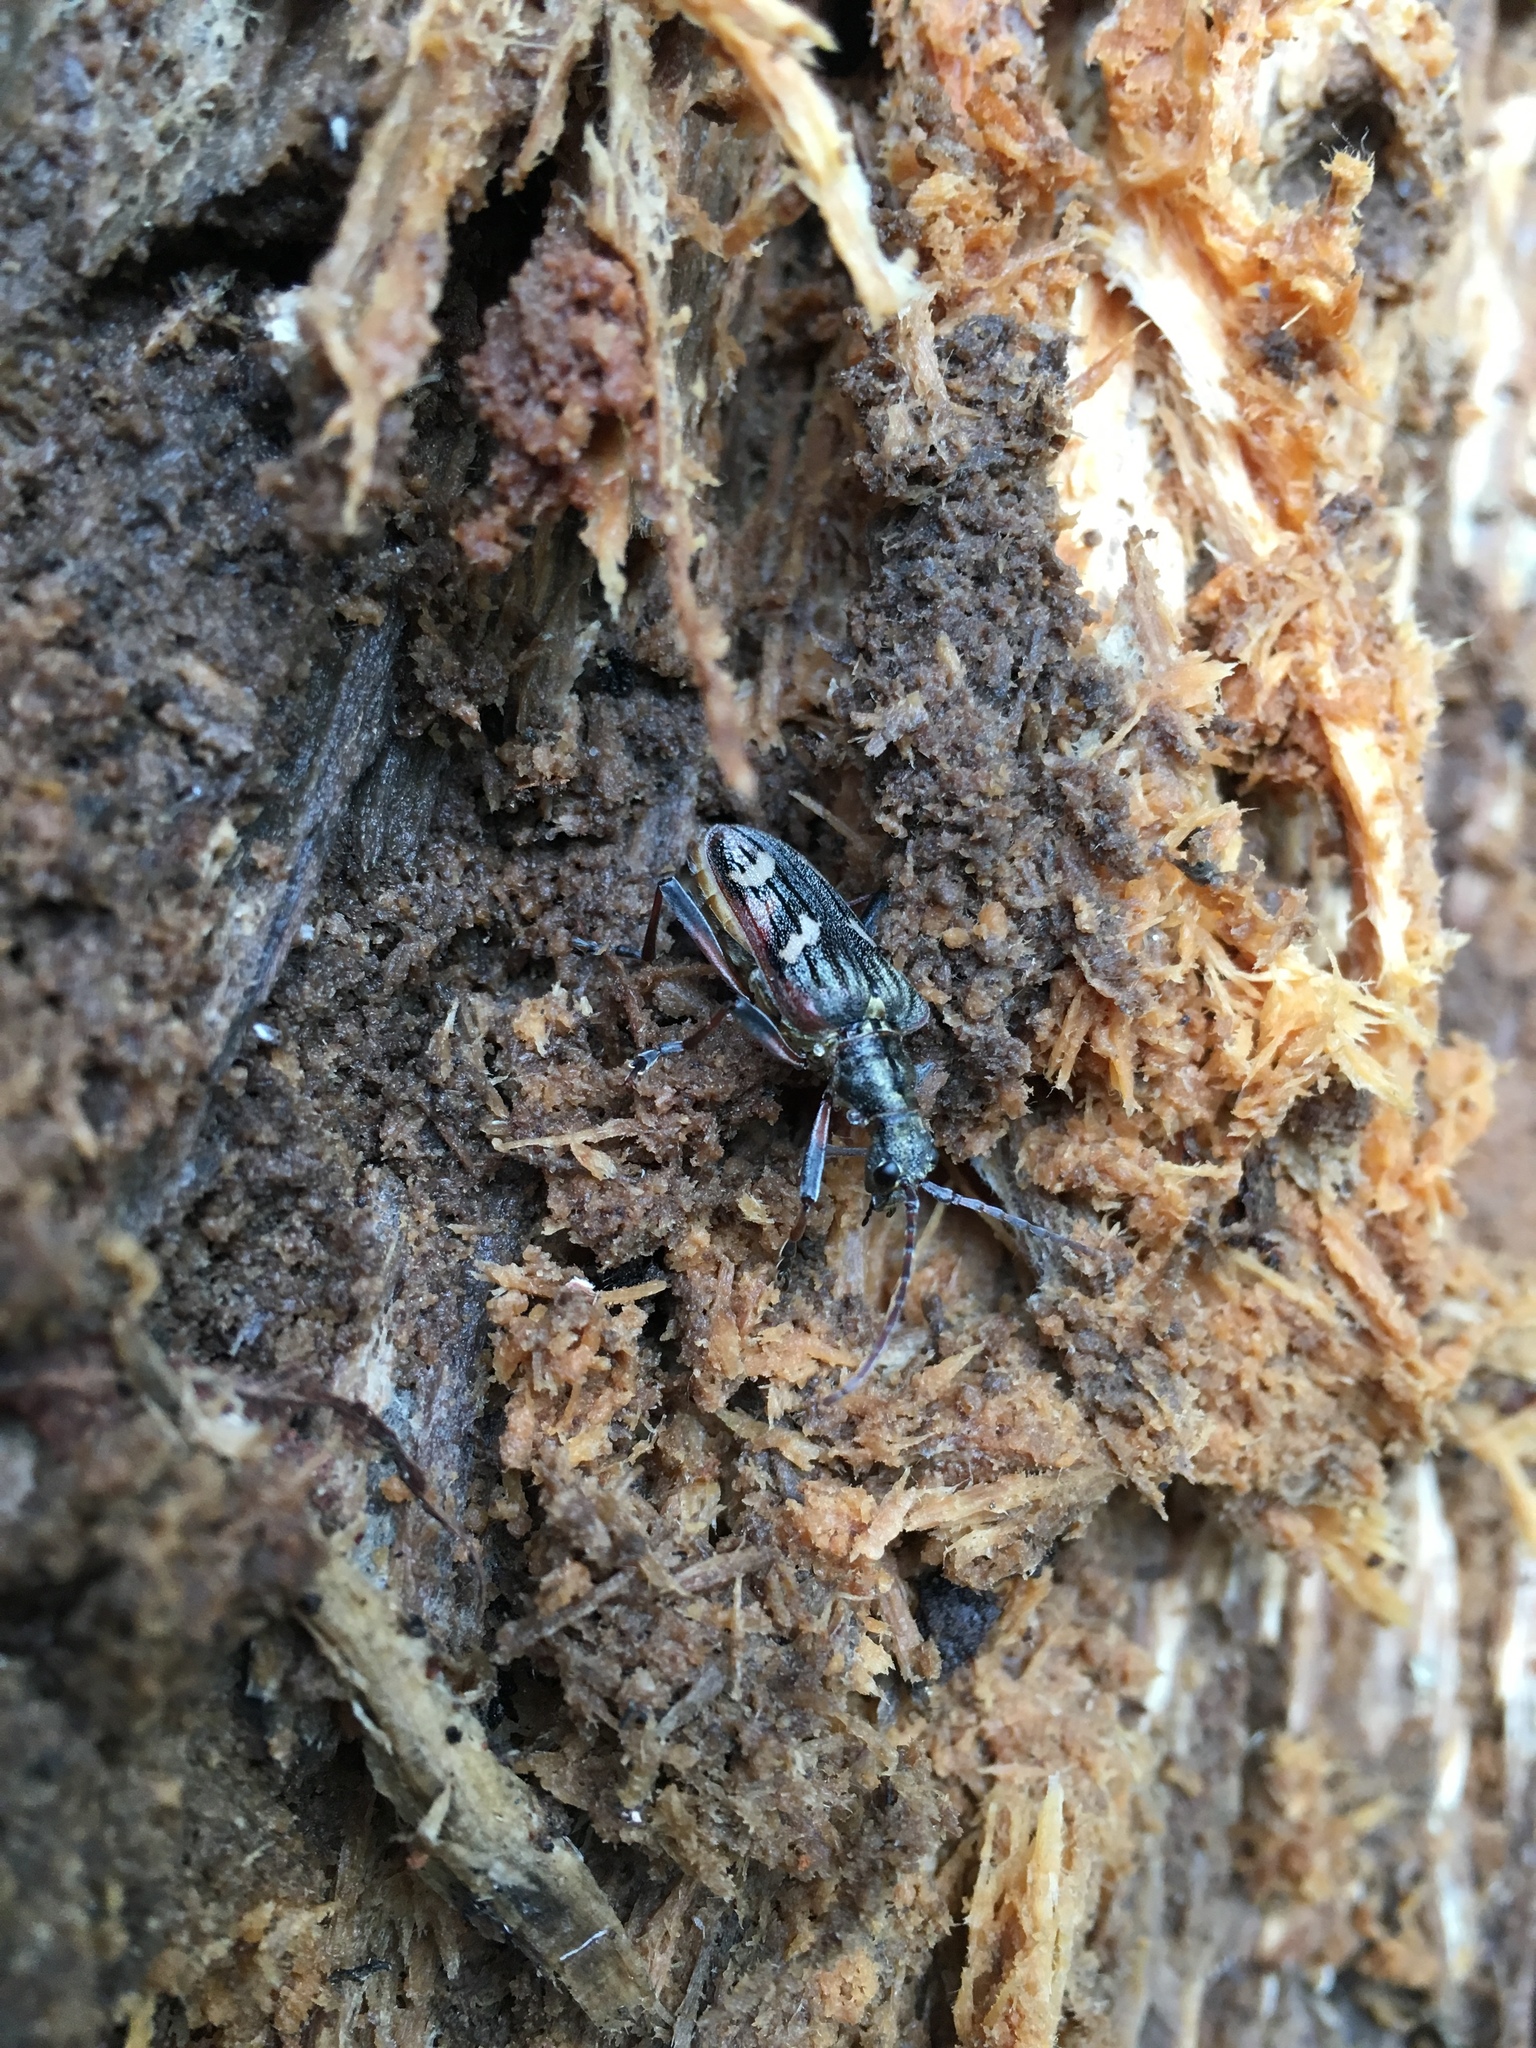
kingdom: Animalia
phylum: Arthropoda
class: Insecta
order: Coleoptera
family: Cerambycidae
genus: Rhagium
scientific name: Rhagium bifasciatum
